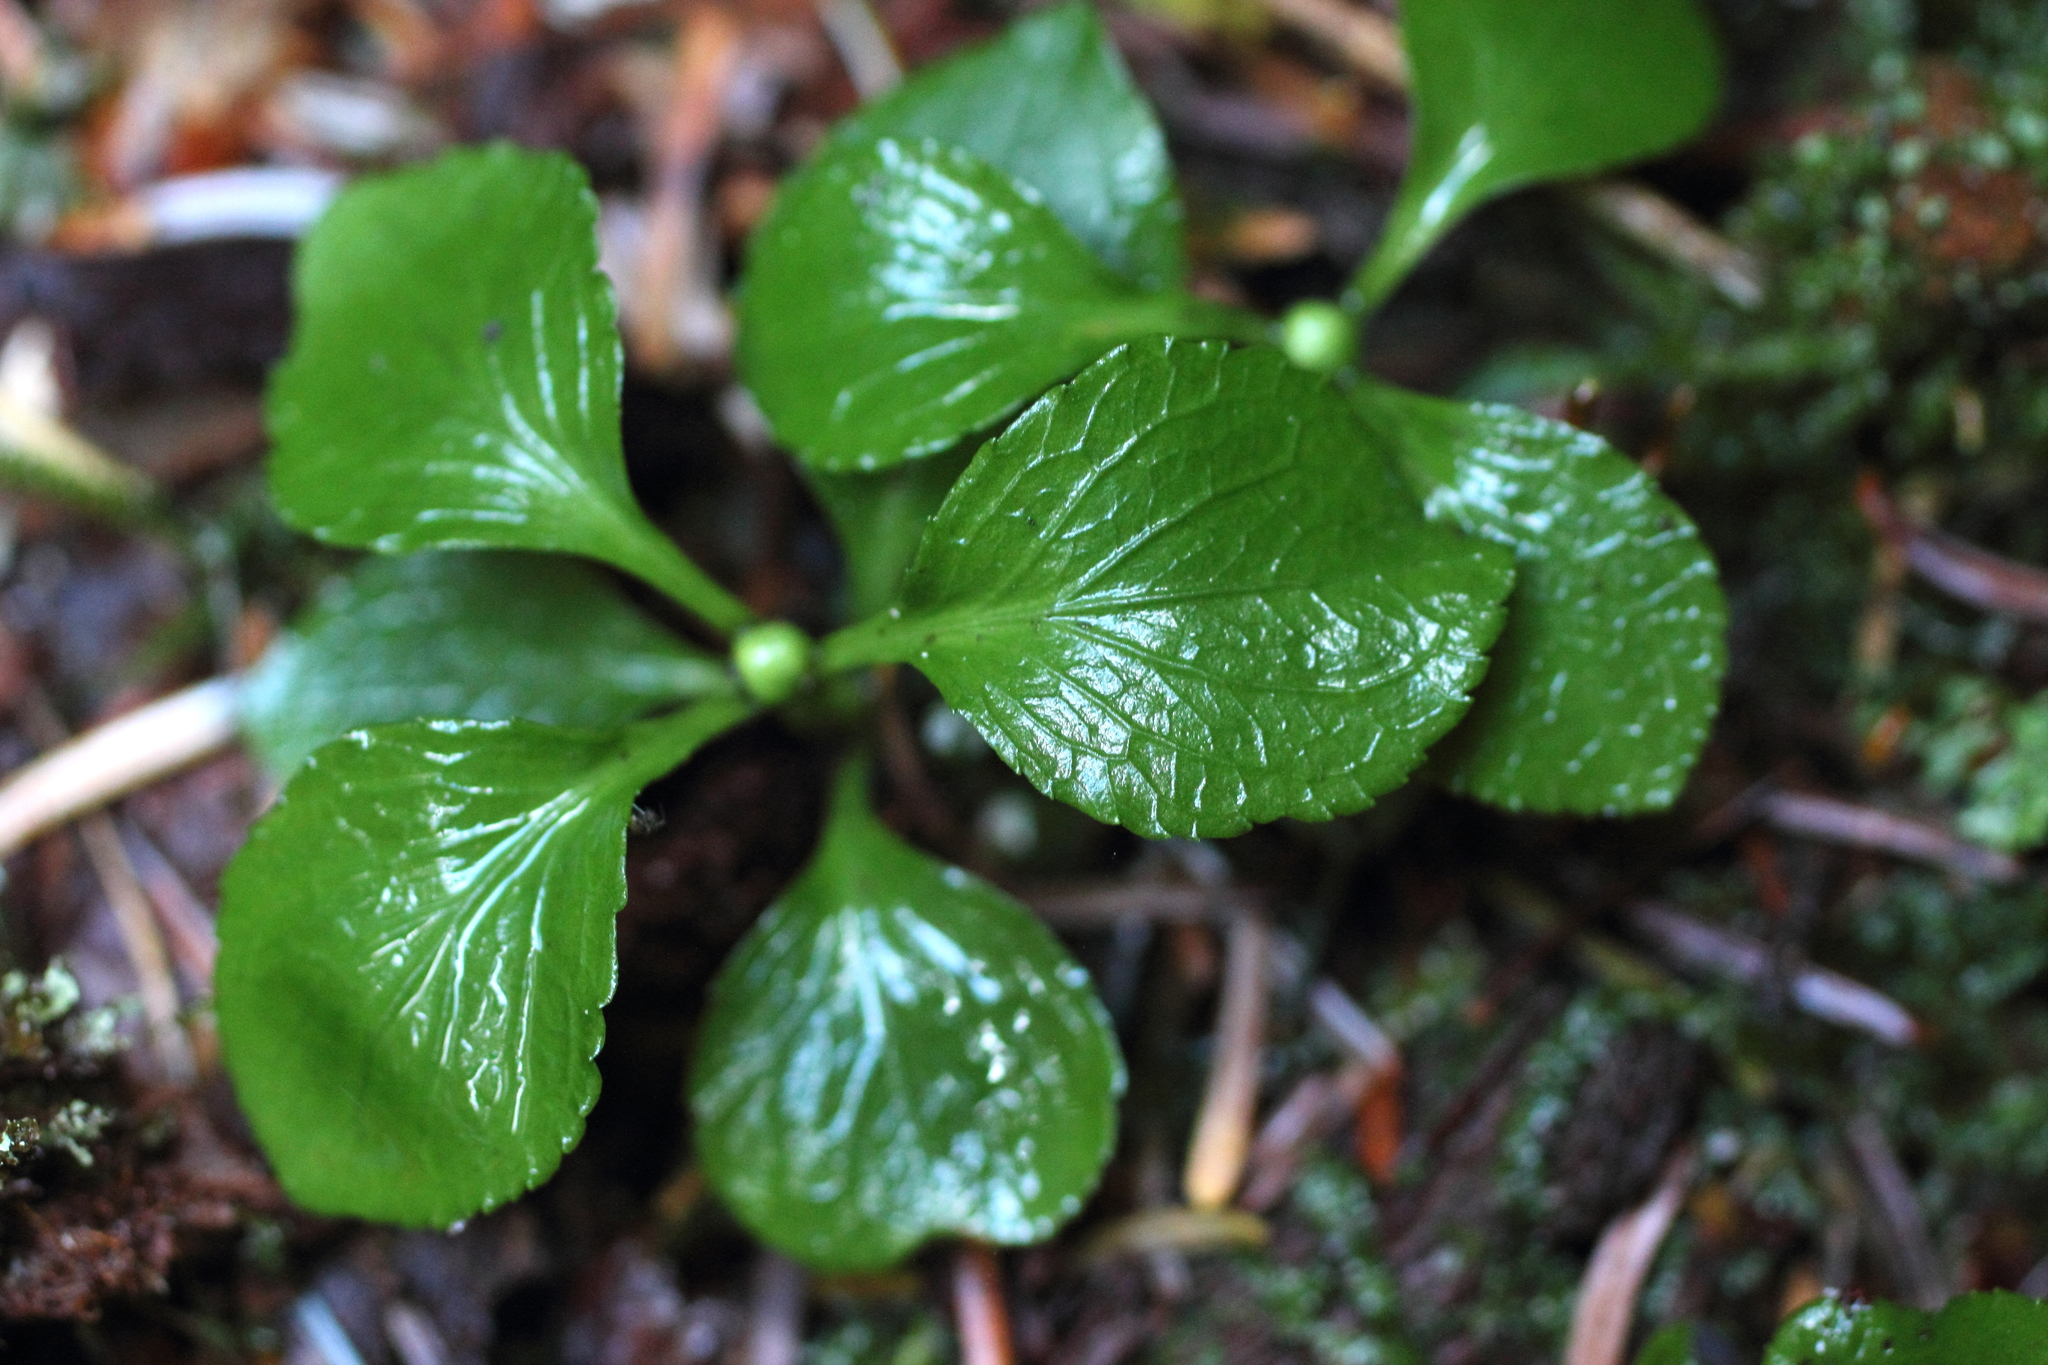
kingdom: Plantae
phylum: Tracheophyta
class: Magnoliopsida
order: Ericales
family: Ericaceae
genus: Moneses
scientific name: Moneses uniflora
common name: One-flowered wintergreen
